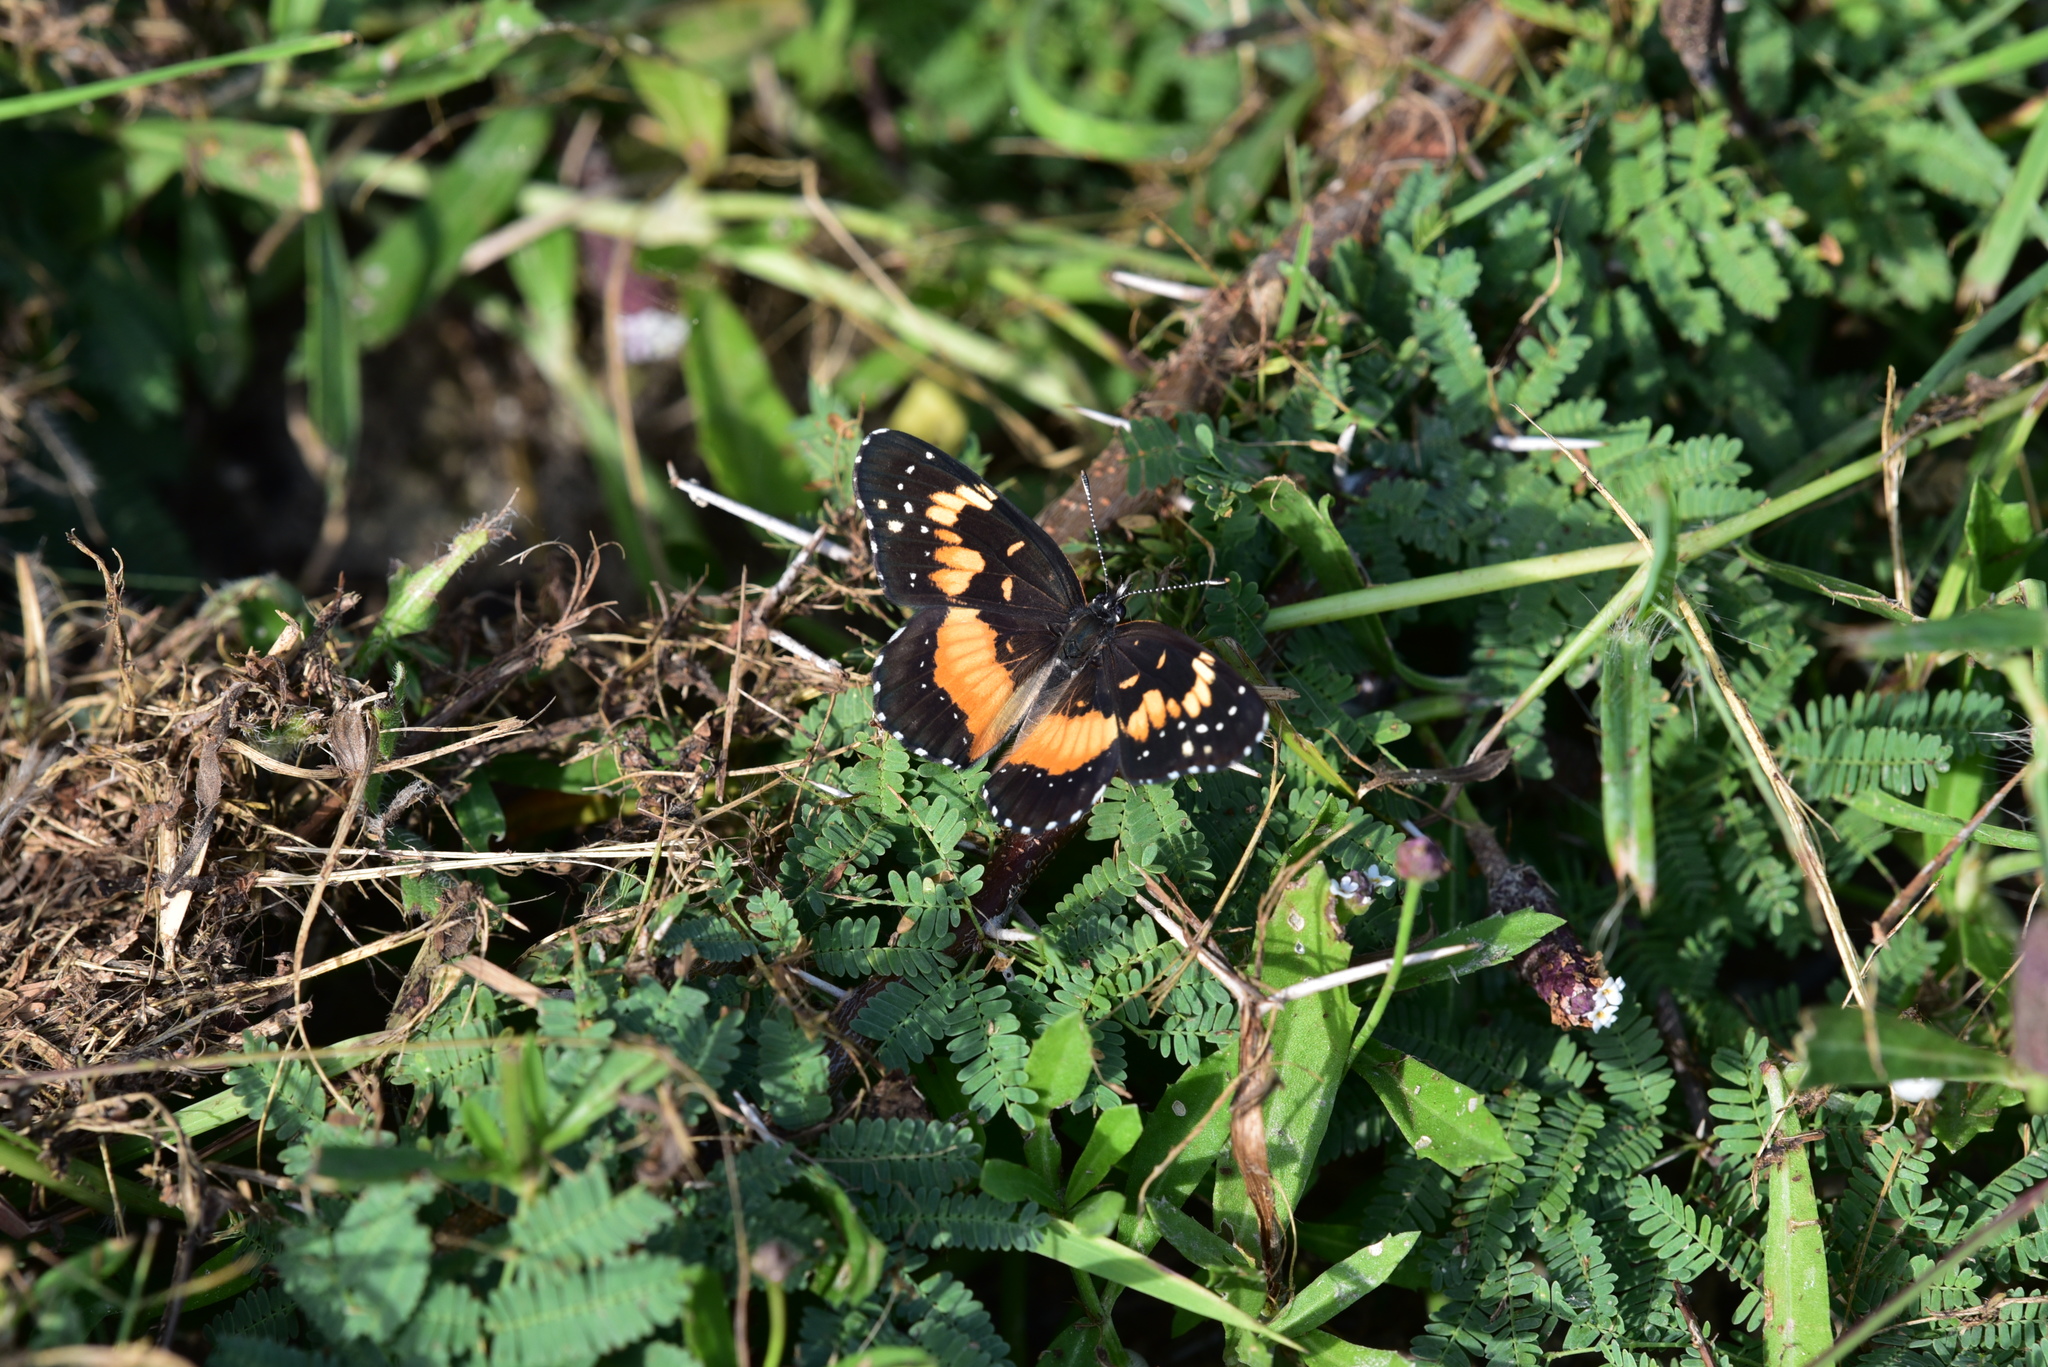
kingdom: Animalia
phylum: Arthropoda
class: Insecta
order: Lepidoptera
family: Nymphalidae
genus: Chlosyne
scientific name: Chlosyne lacinia
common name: Bordered patch
